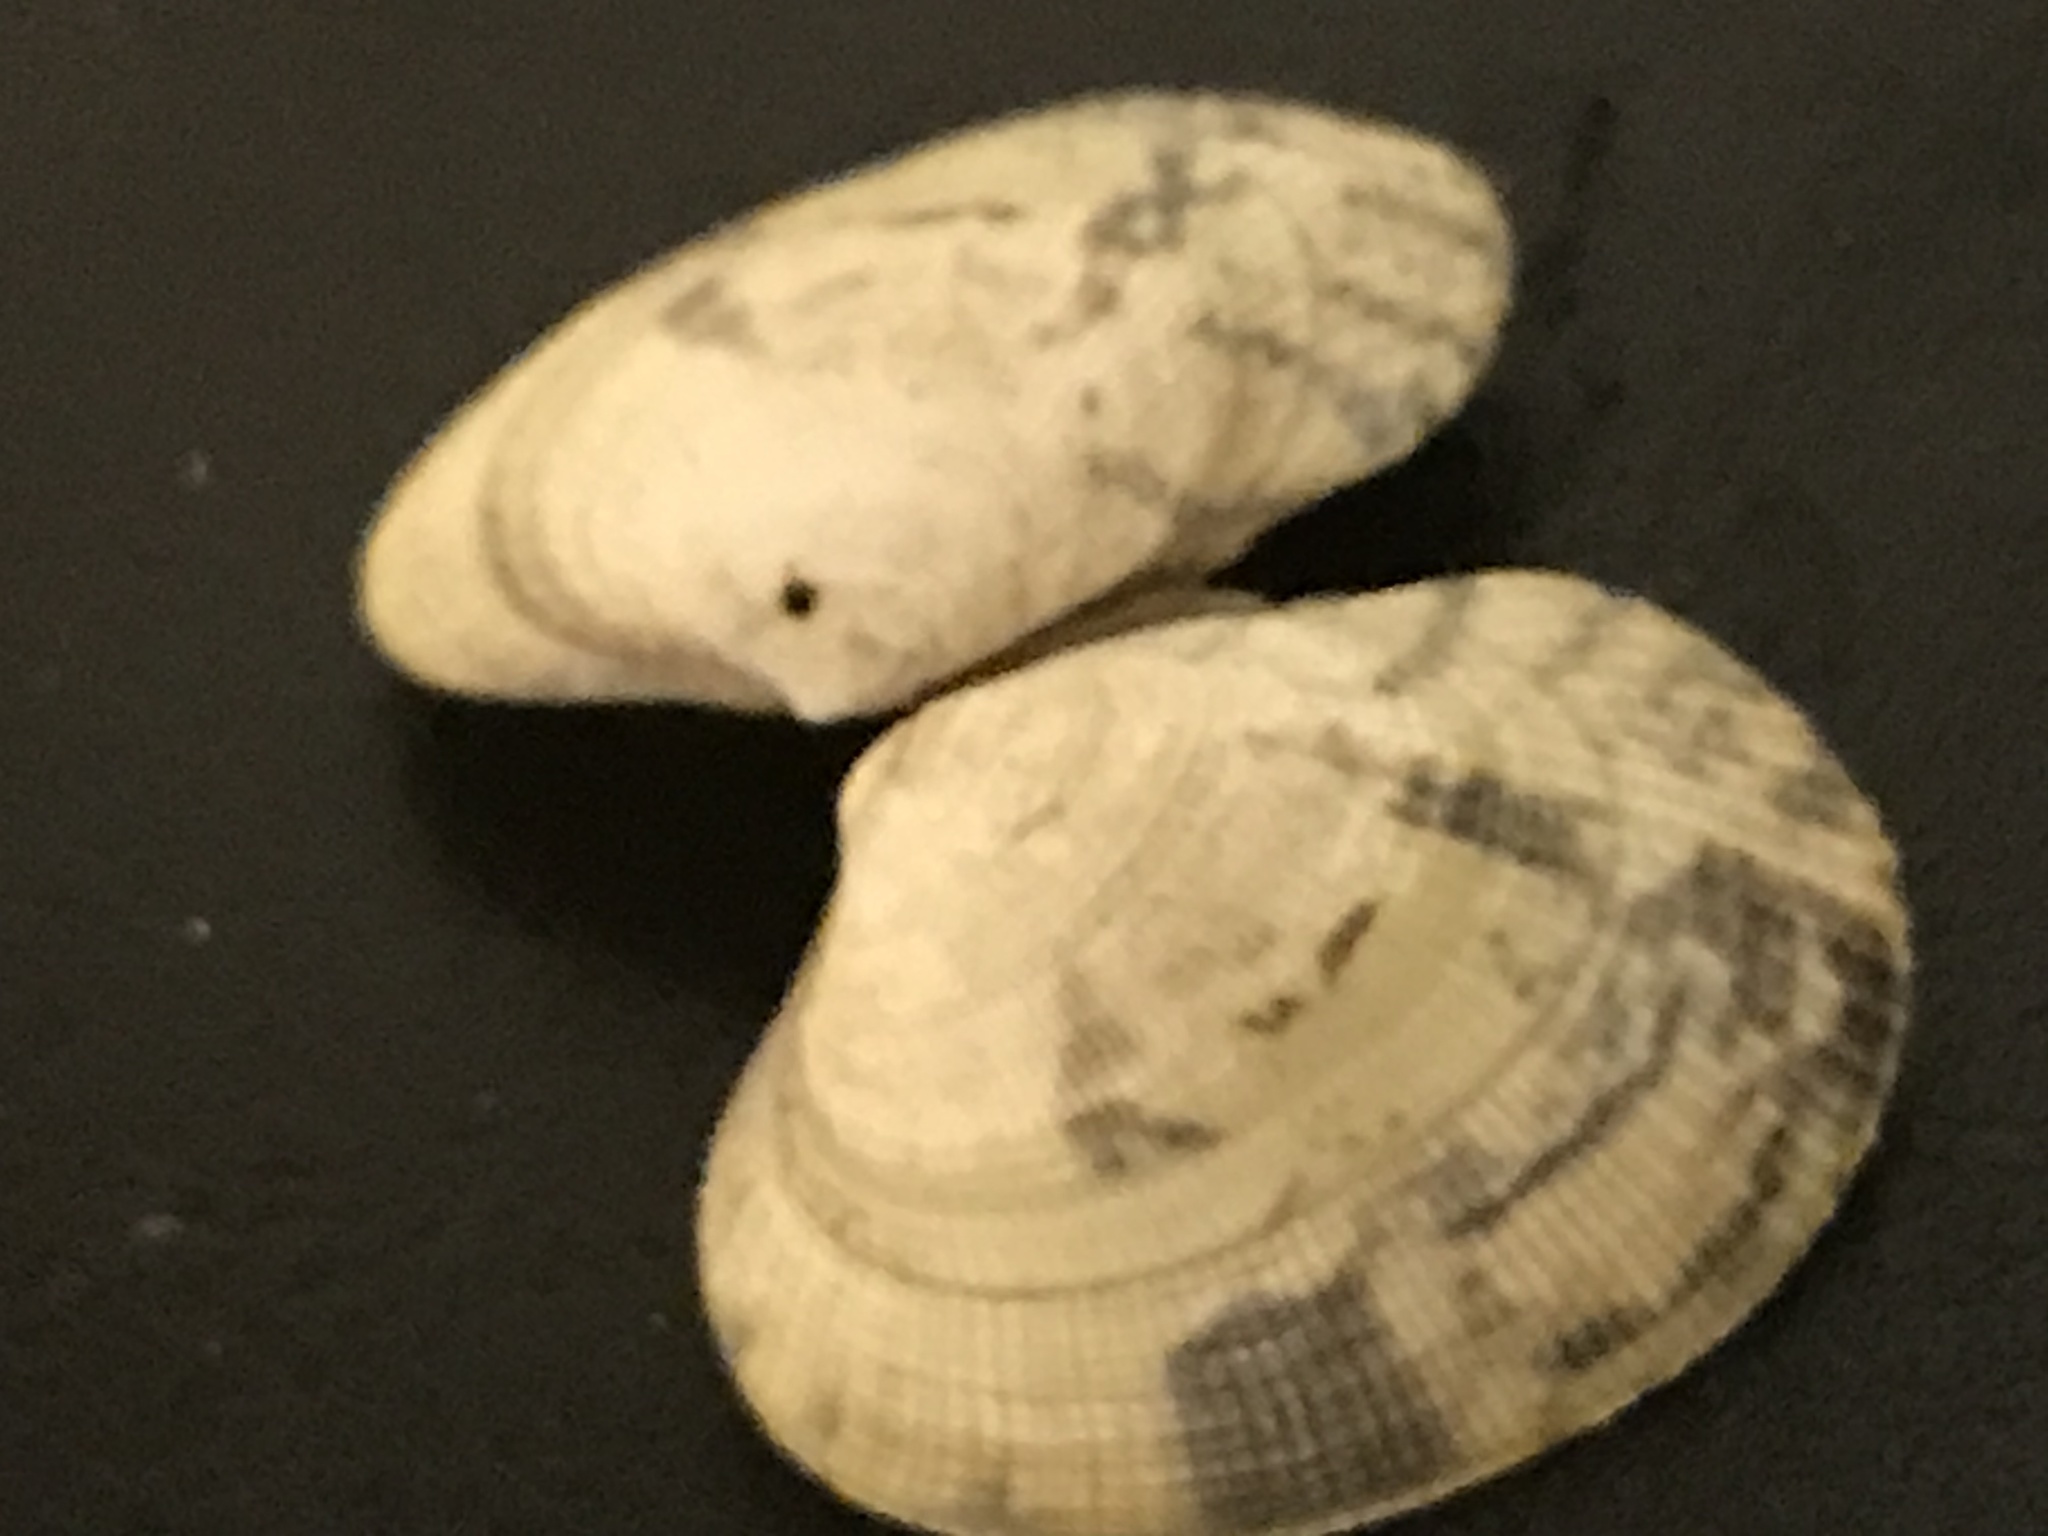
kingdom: Animalia
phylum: Mollusca
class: Bivalvia
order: Venerida
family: Veneridae
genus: Ruditapes
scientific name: Ruditapes philippinarum
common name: Manila clam
